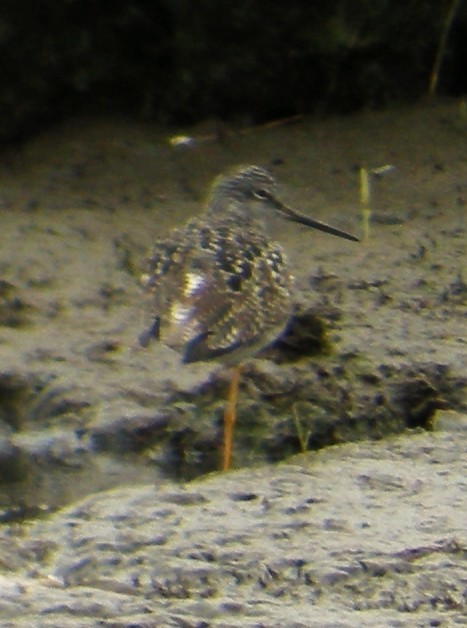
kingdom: Animalia
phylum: Chordata
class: Aves
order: Charadriiformes
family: Scolopacidae
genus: Tringa
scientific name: Tringa melanoleuca
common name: Greater yellowlegs
